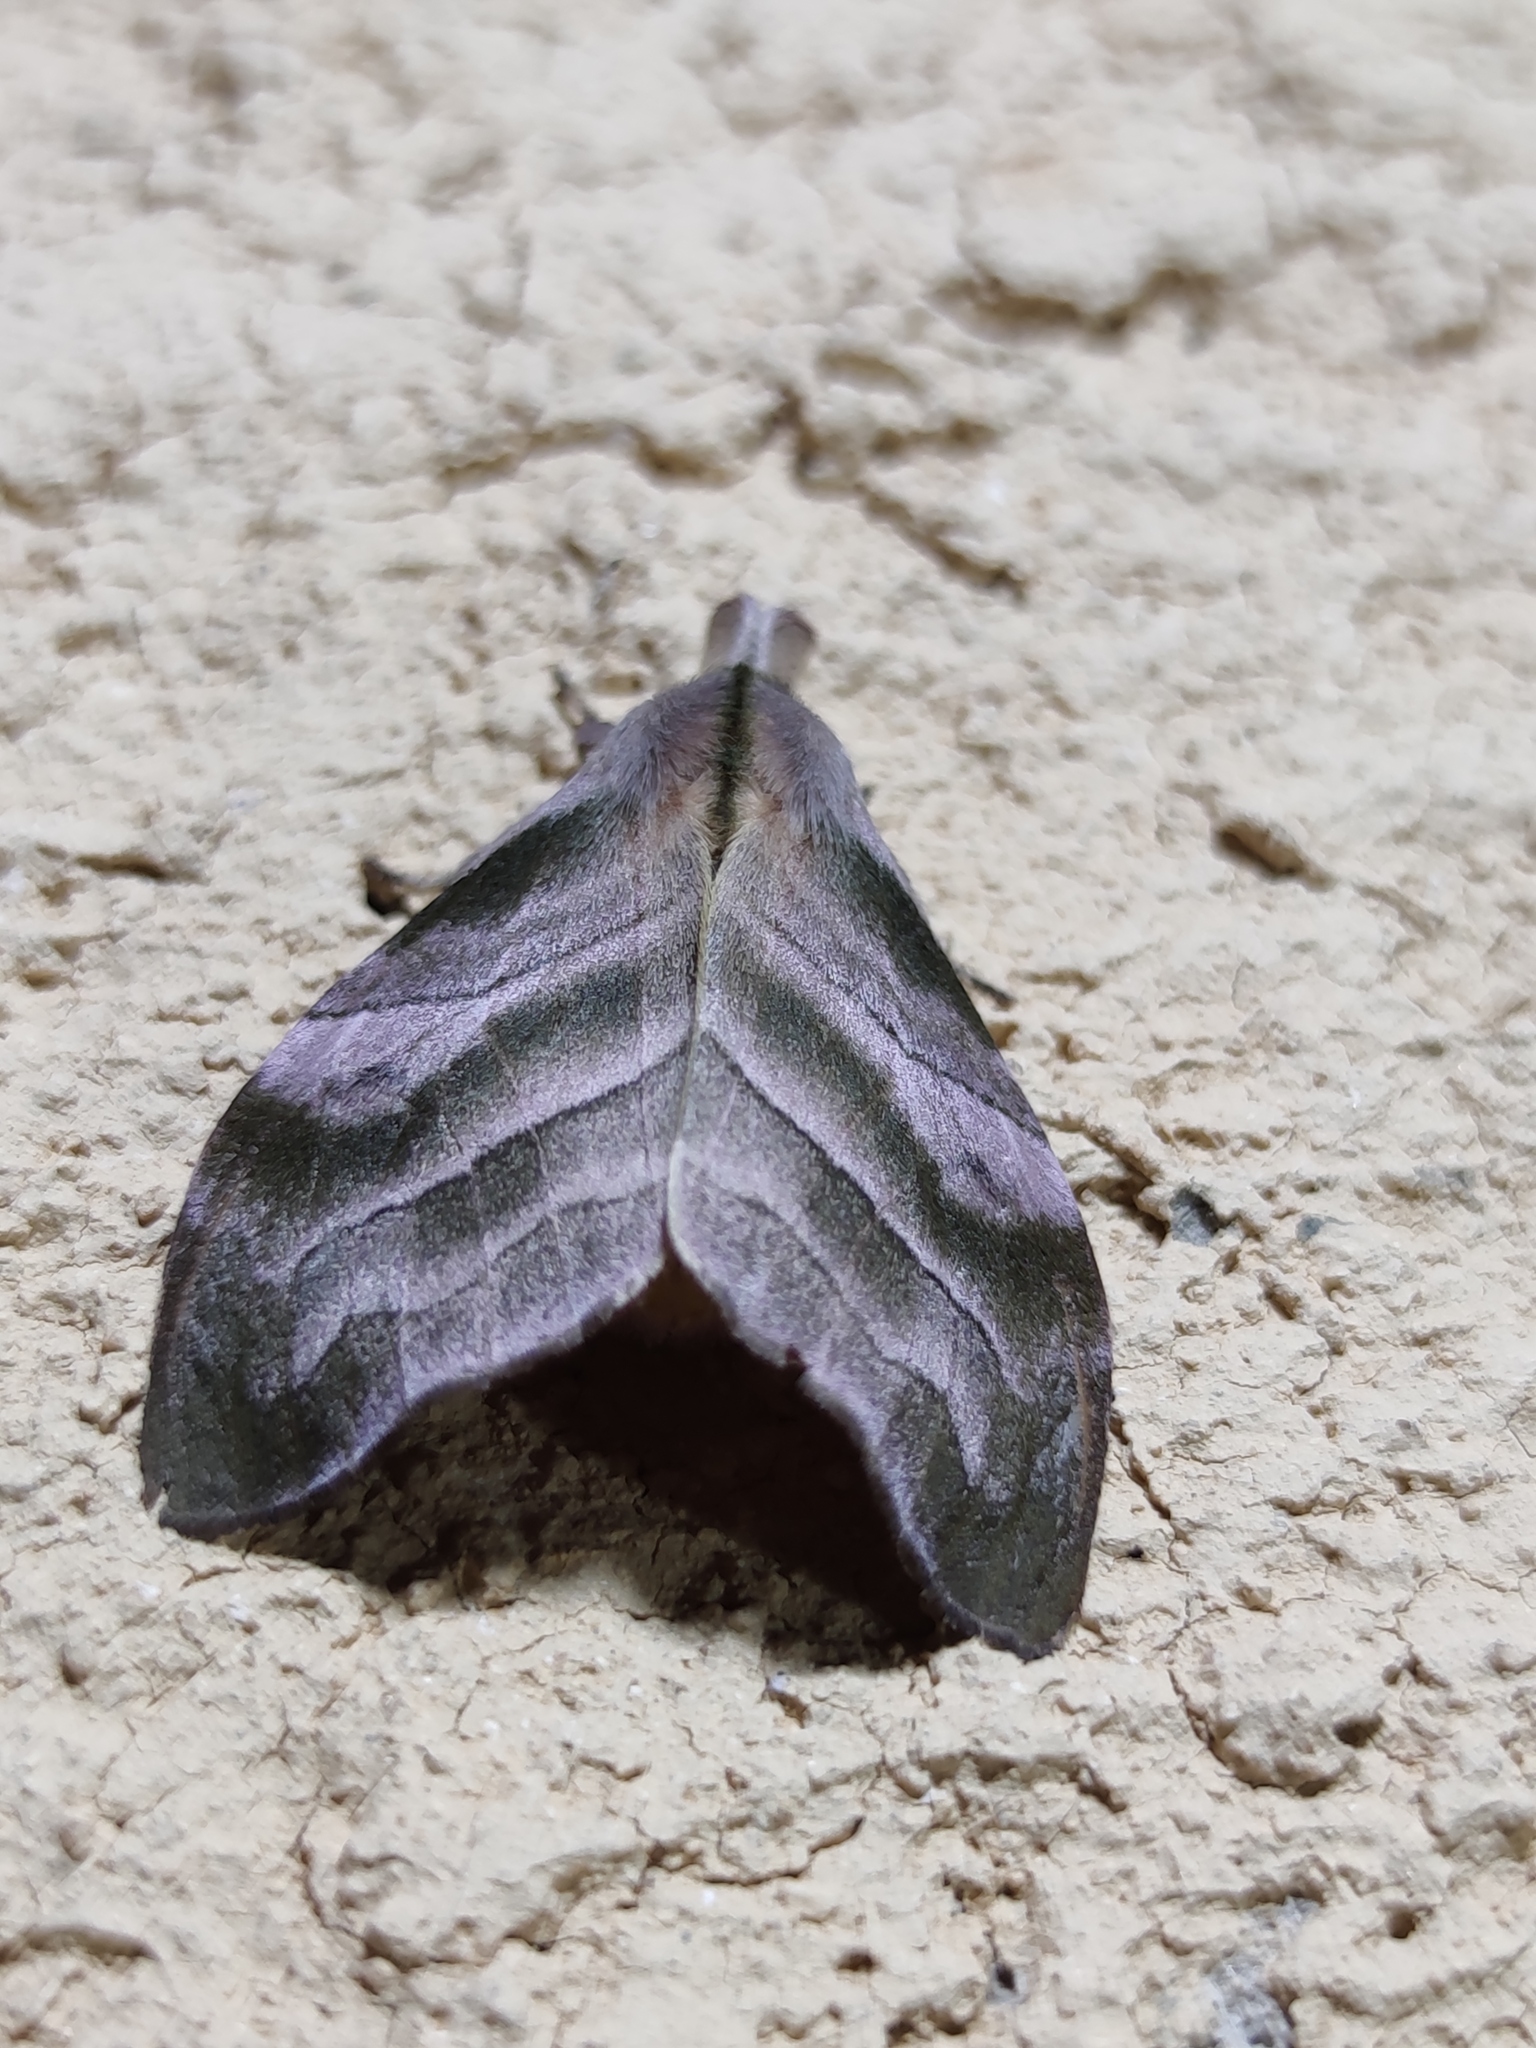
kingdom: Animalia
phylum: Arthropoda
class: Insecta
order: Lepidoptera
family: Erebidae
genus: Sarsina
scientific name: Sarsina purpurascens
